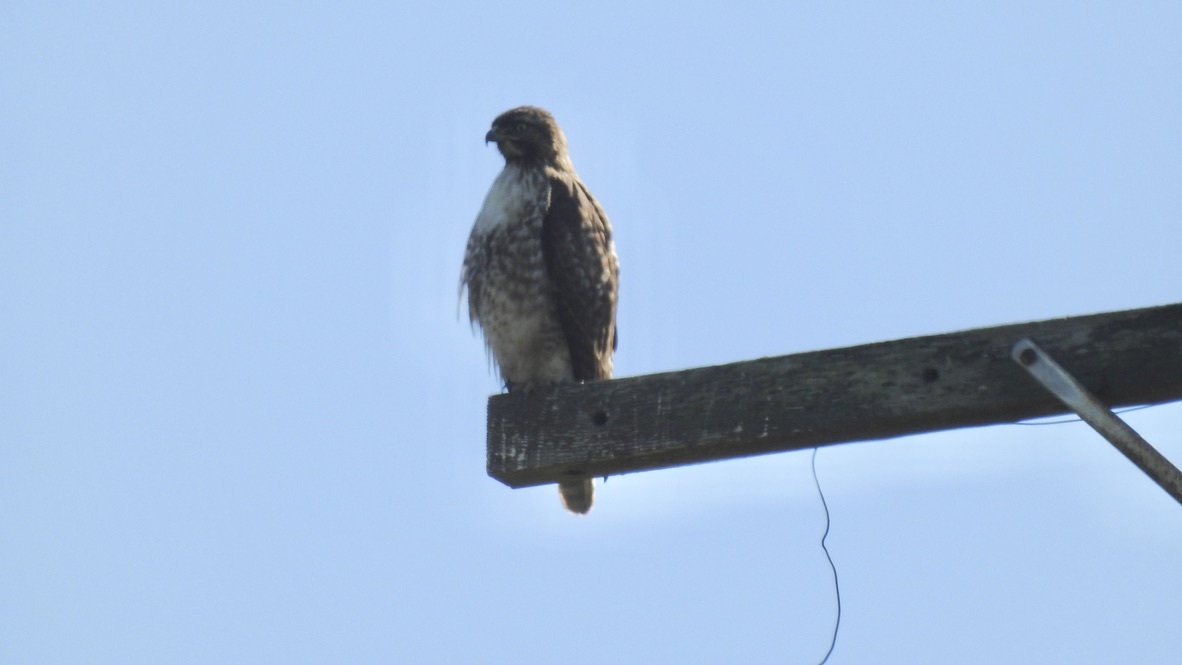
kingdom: Animalia
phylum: Chordata
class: Aves
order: Accipitriformes
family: Accipitridae
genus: Buteo
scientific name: Buteo jamaicensis
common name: Red-tailed hawk
